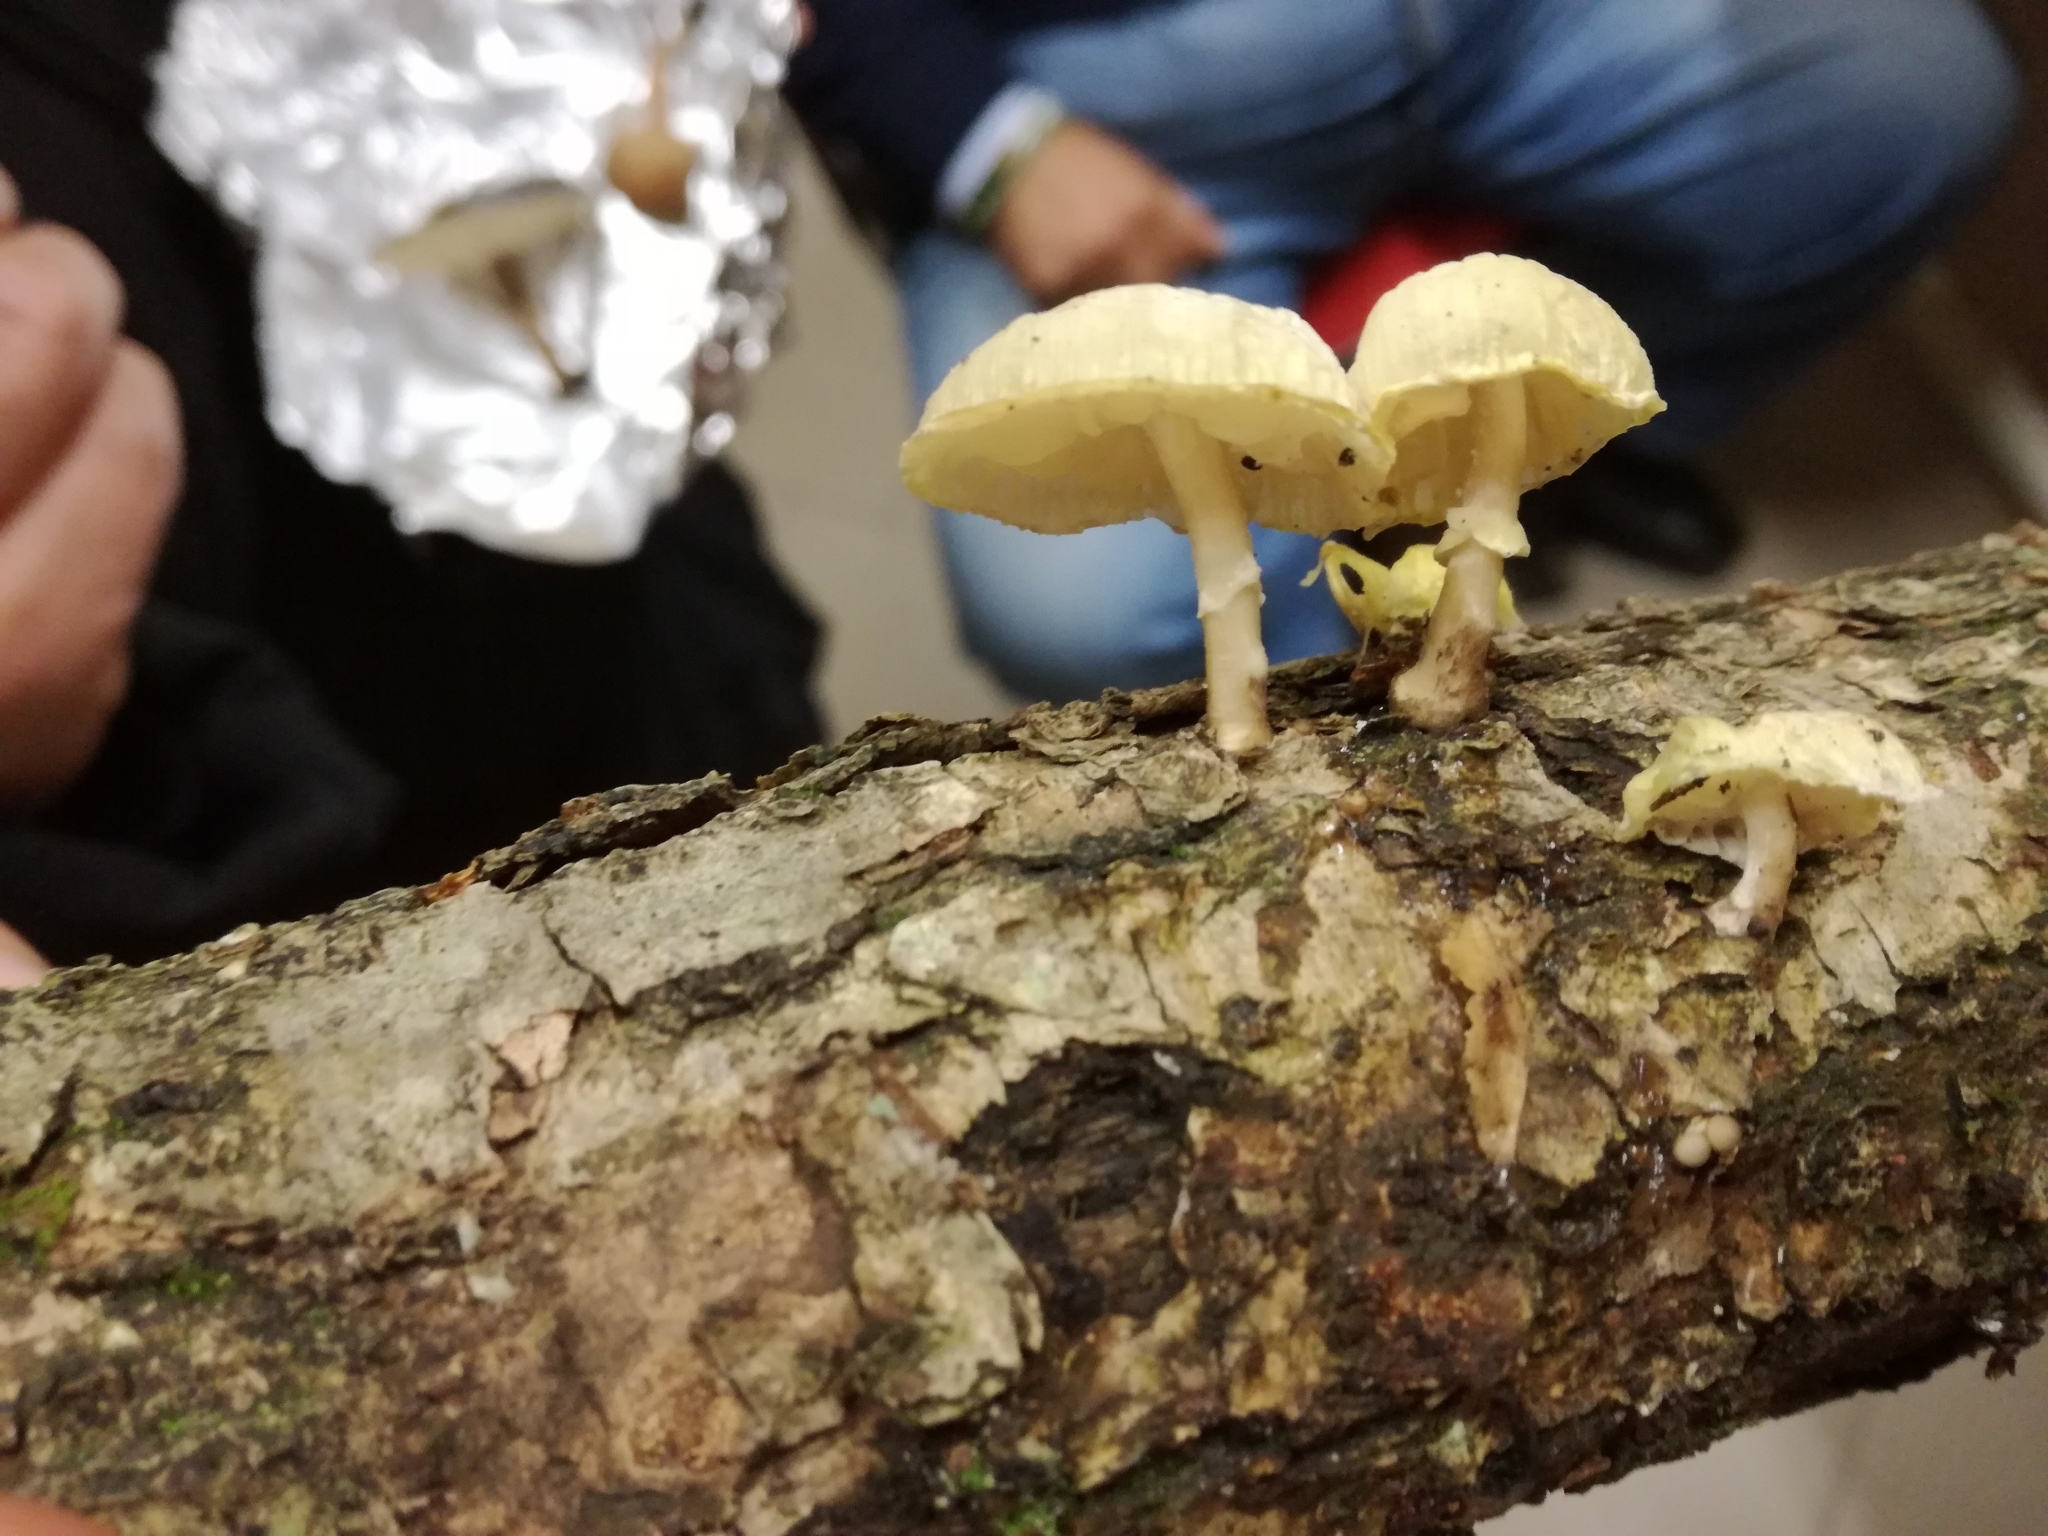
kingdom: Fungi
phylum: Basidiomycota
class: Agaricomycetes
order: Agaricales
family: Physalacriaceae
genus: Mucidula
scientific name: Mucidula mucida
